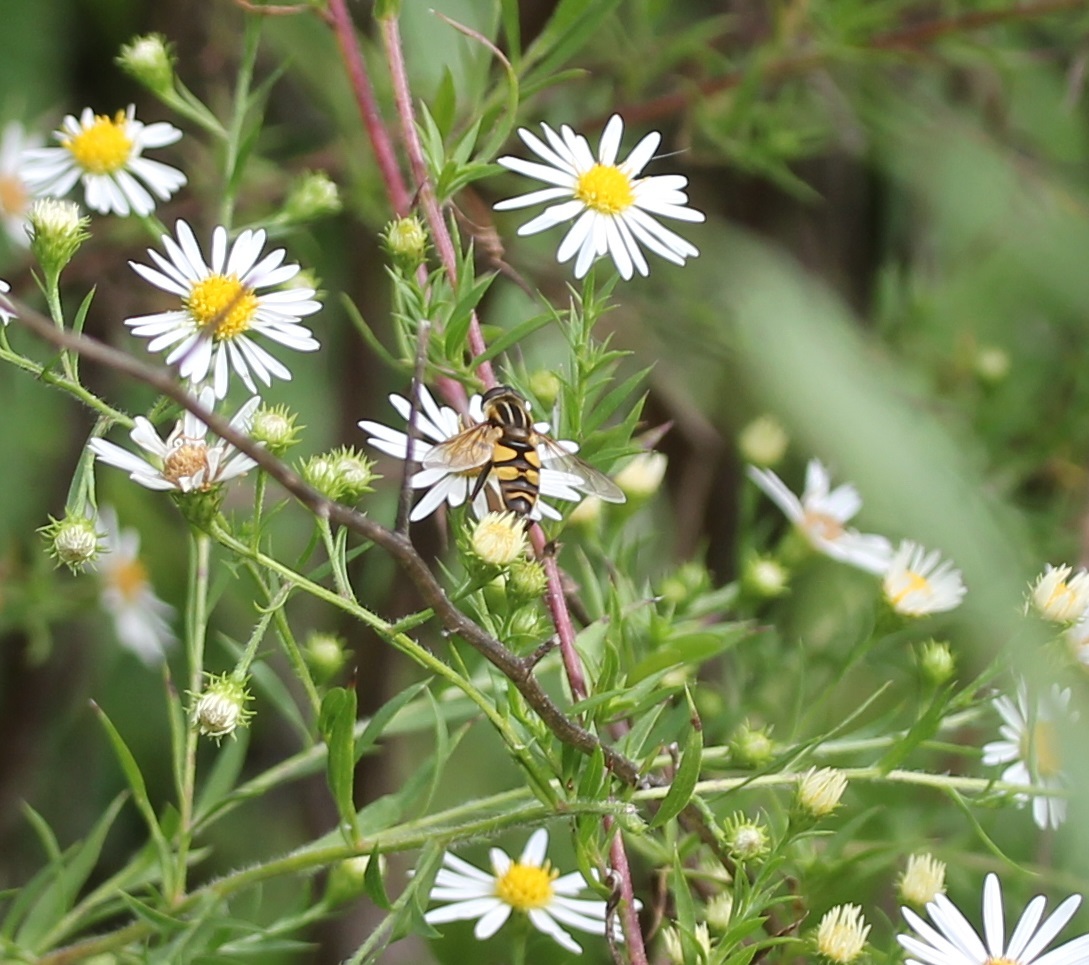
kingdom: Animalia
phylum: Arthropoda
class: Insecta
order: Diptera
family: Syrphidae
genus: Helophilus
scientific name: Helophilus fasciatus
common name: Narrow-headed marsh fly
